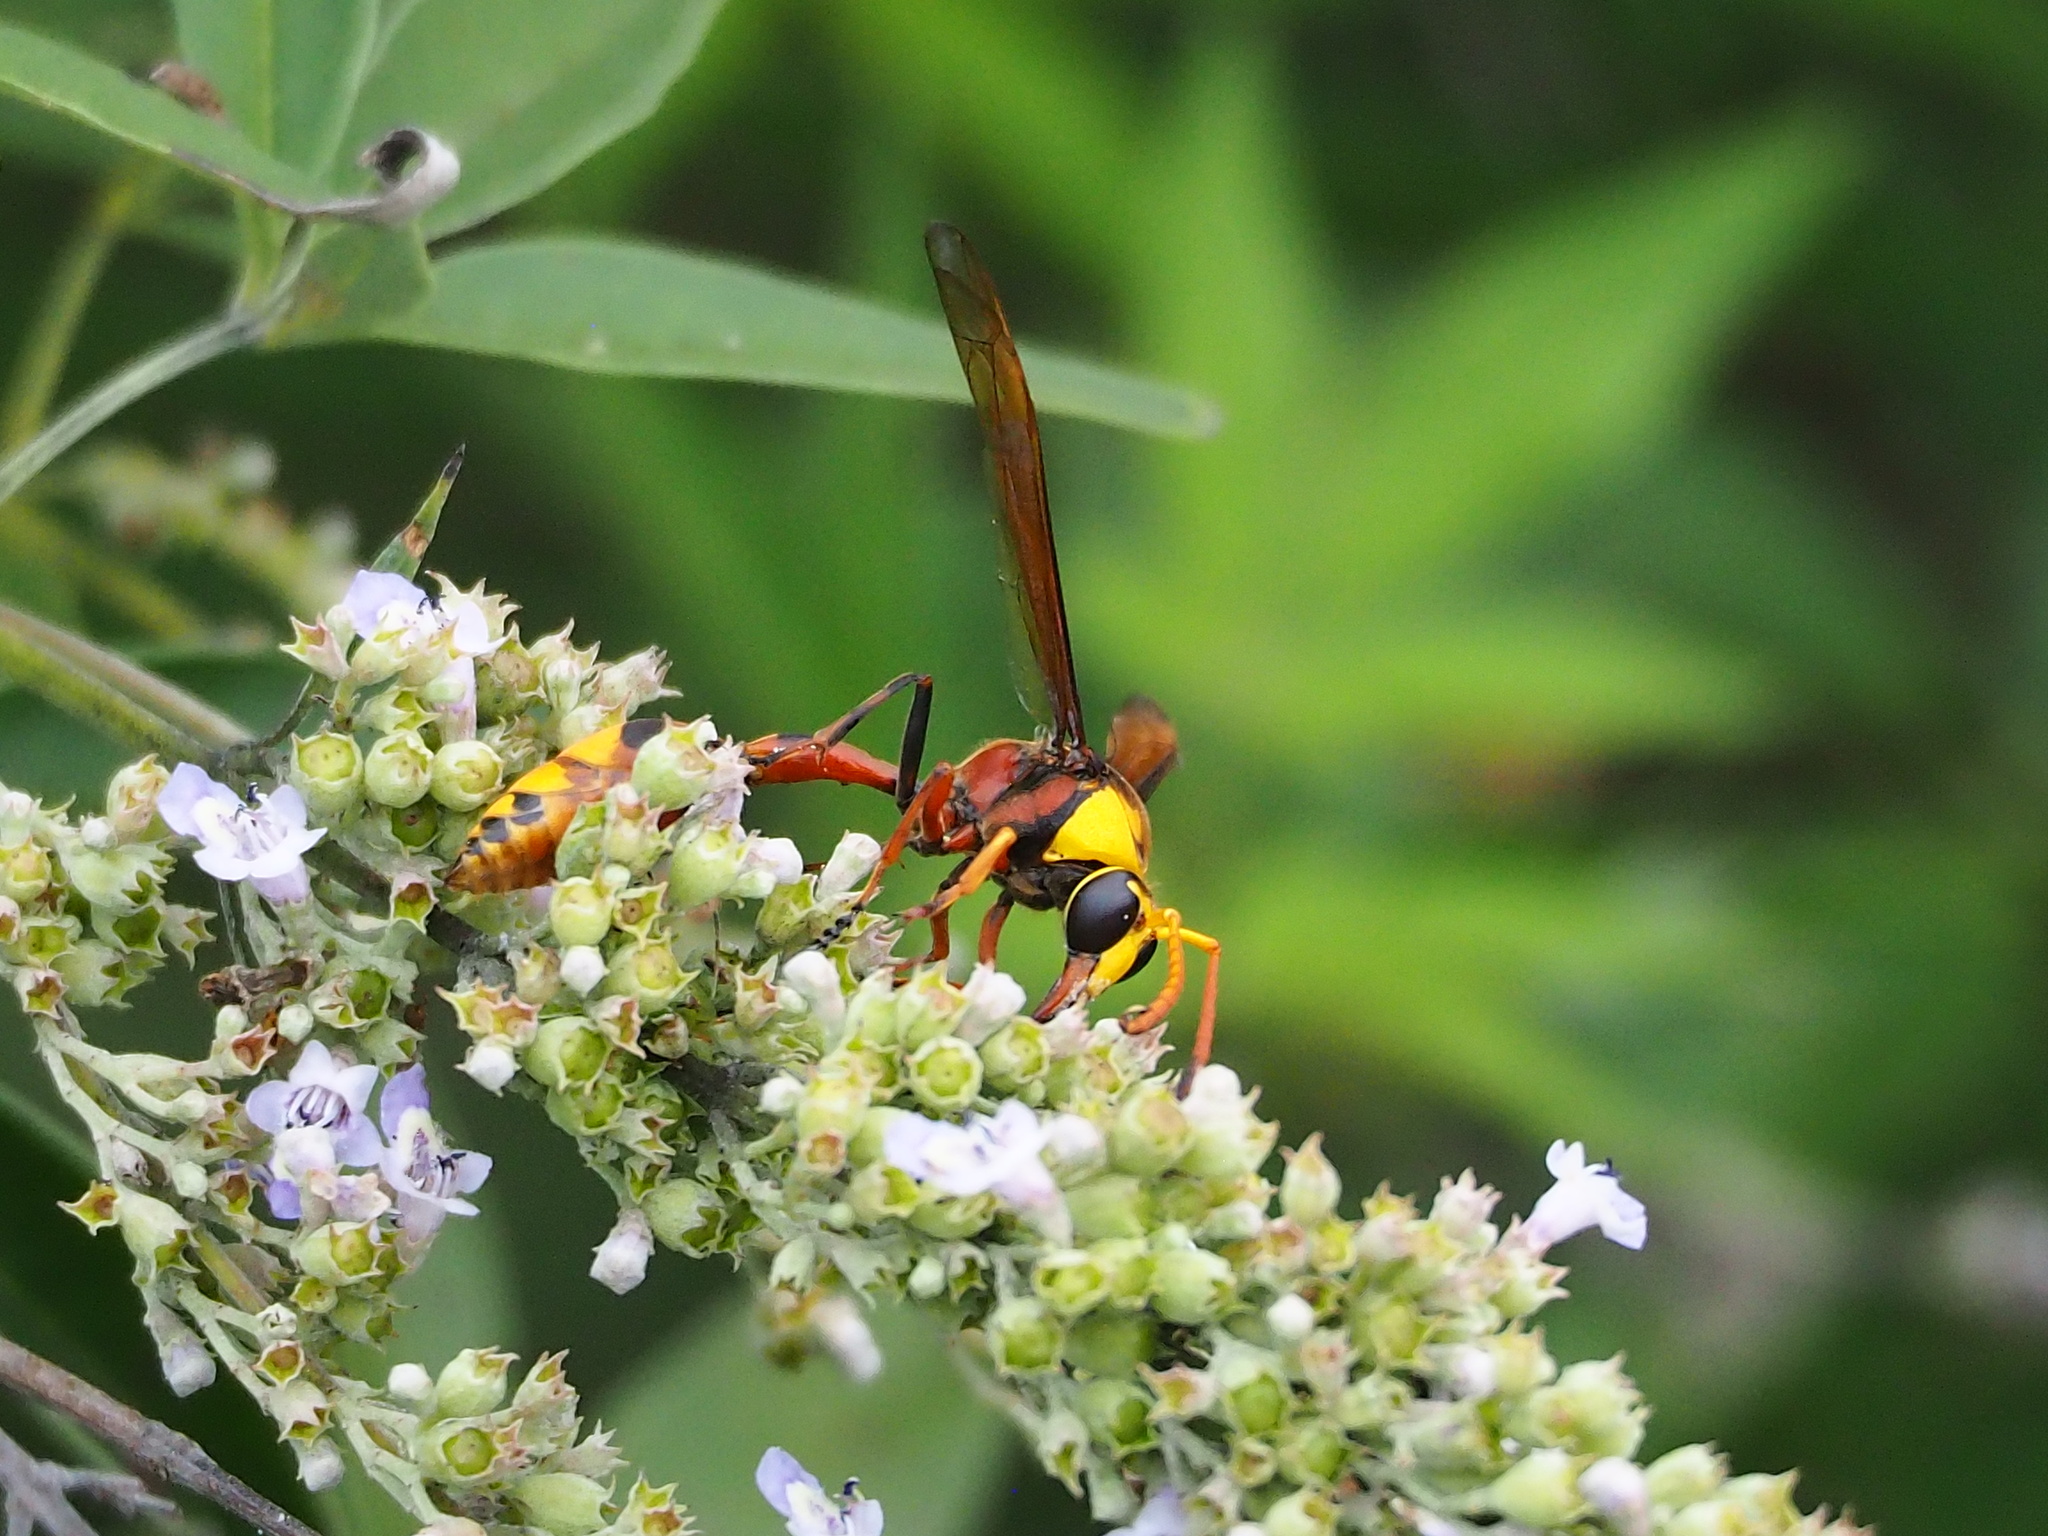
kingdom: Animalia
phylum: Arthropoda
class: Insecta
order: Hymenoptera
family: Eumenidae
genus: Delta
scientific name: Delta pyriforme
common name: Wasp
